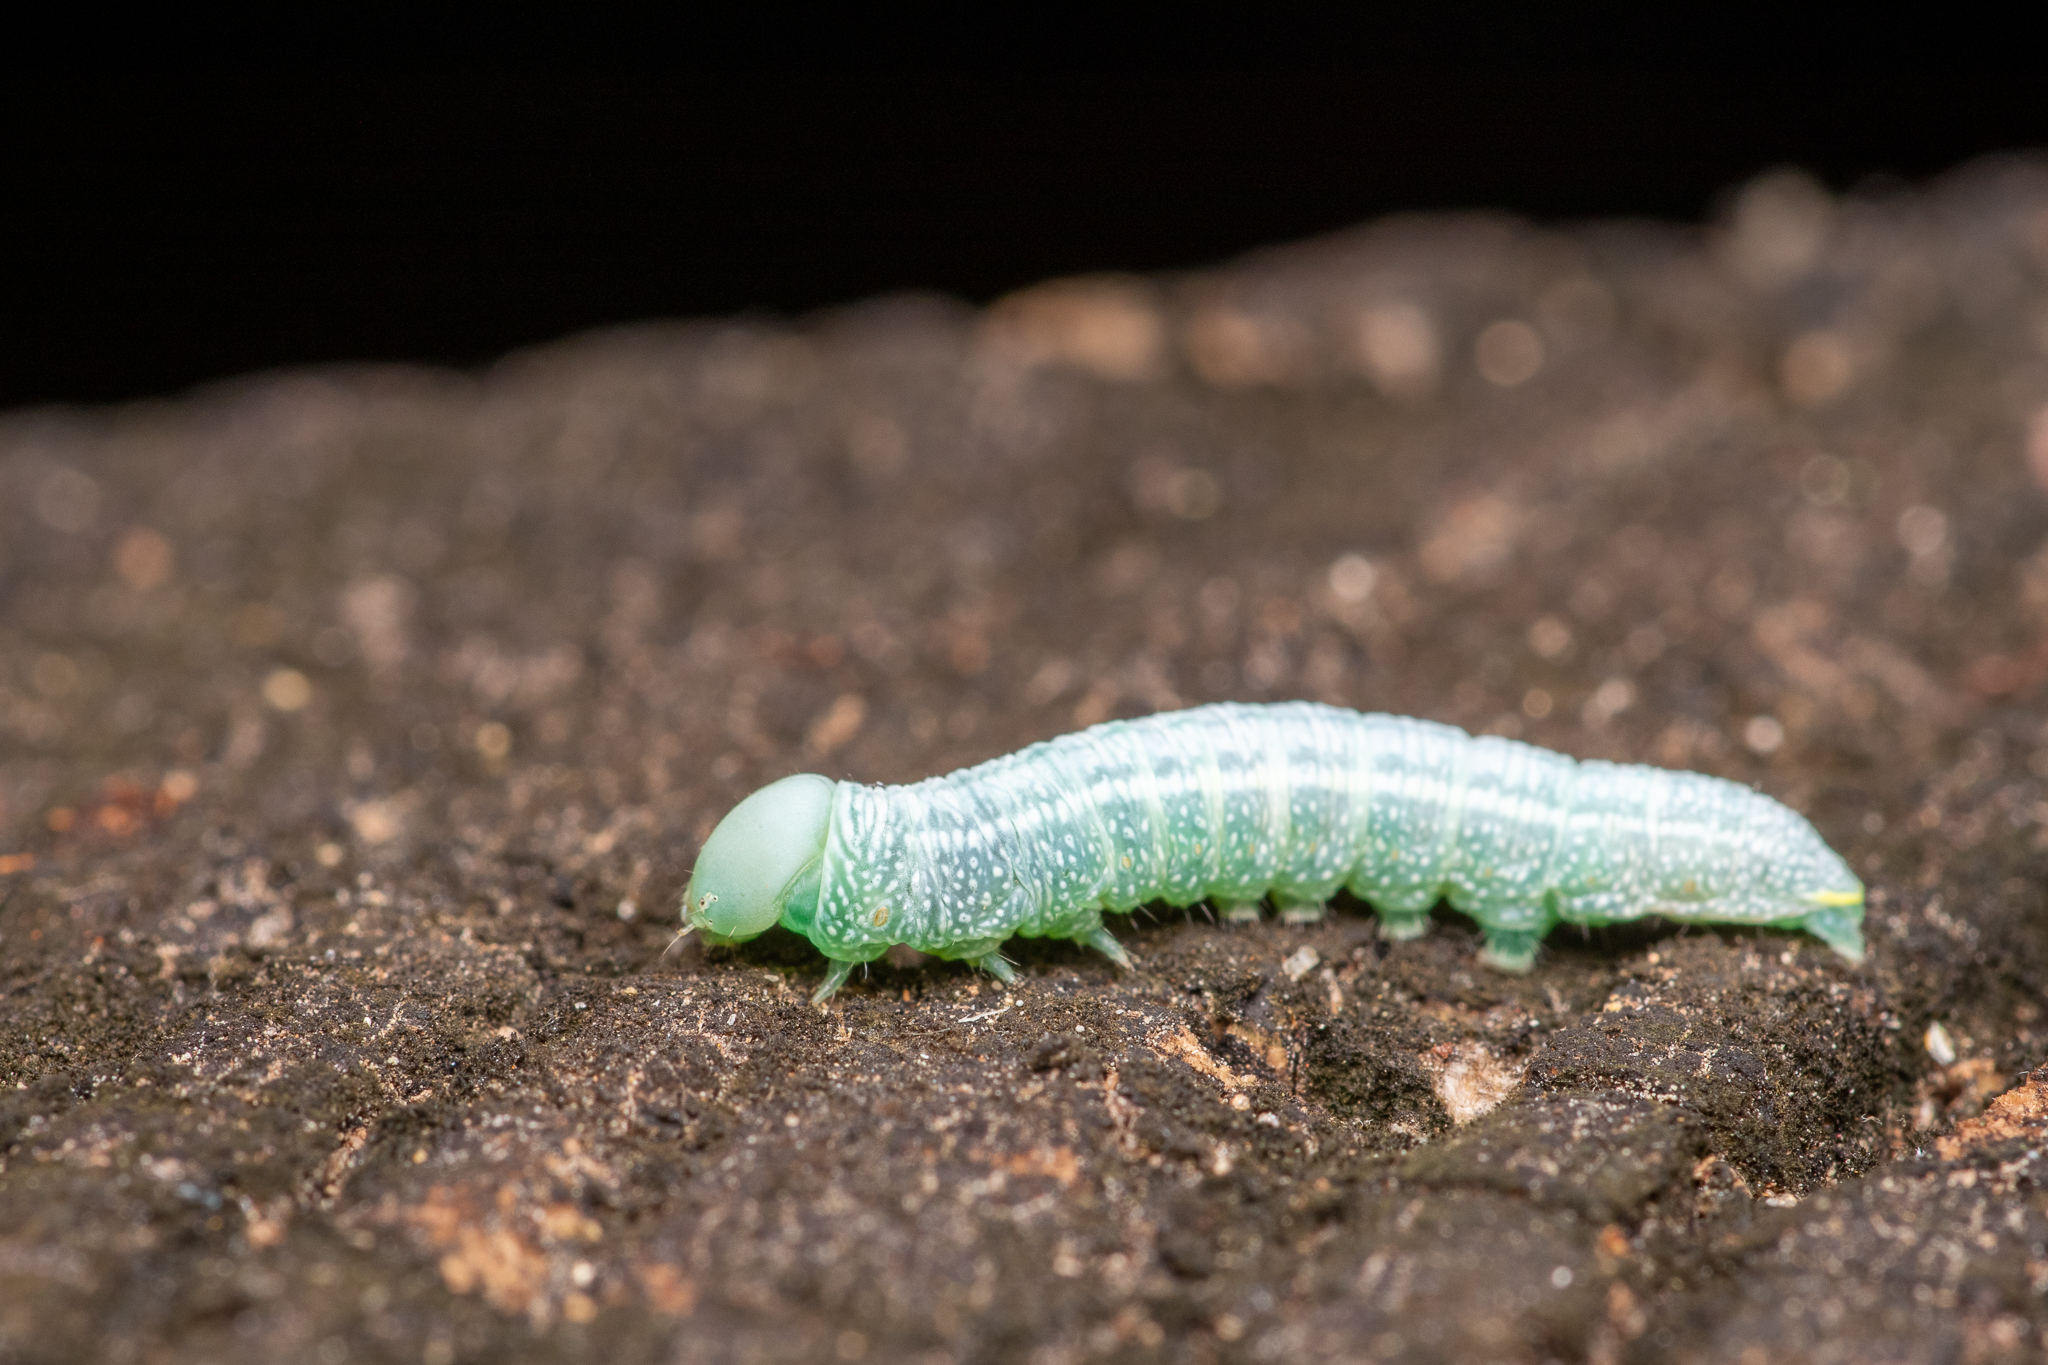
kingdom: Animalia
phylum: Arthropoda
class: Insecta
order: Lepidoptera
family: Notodontidae
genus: Nadata
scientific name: Nadata gibbosa
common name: White-dotted prominent
